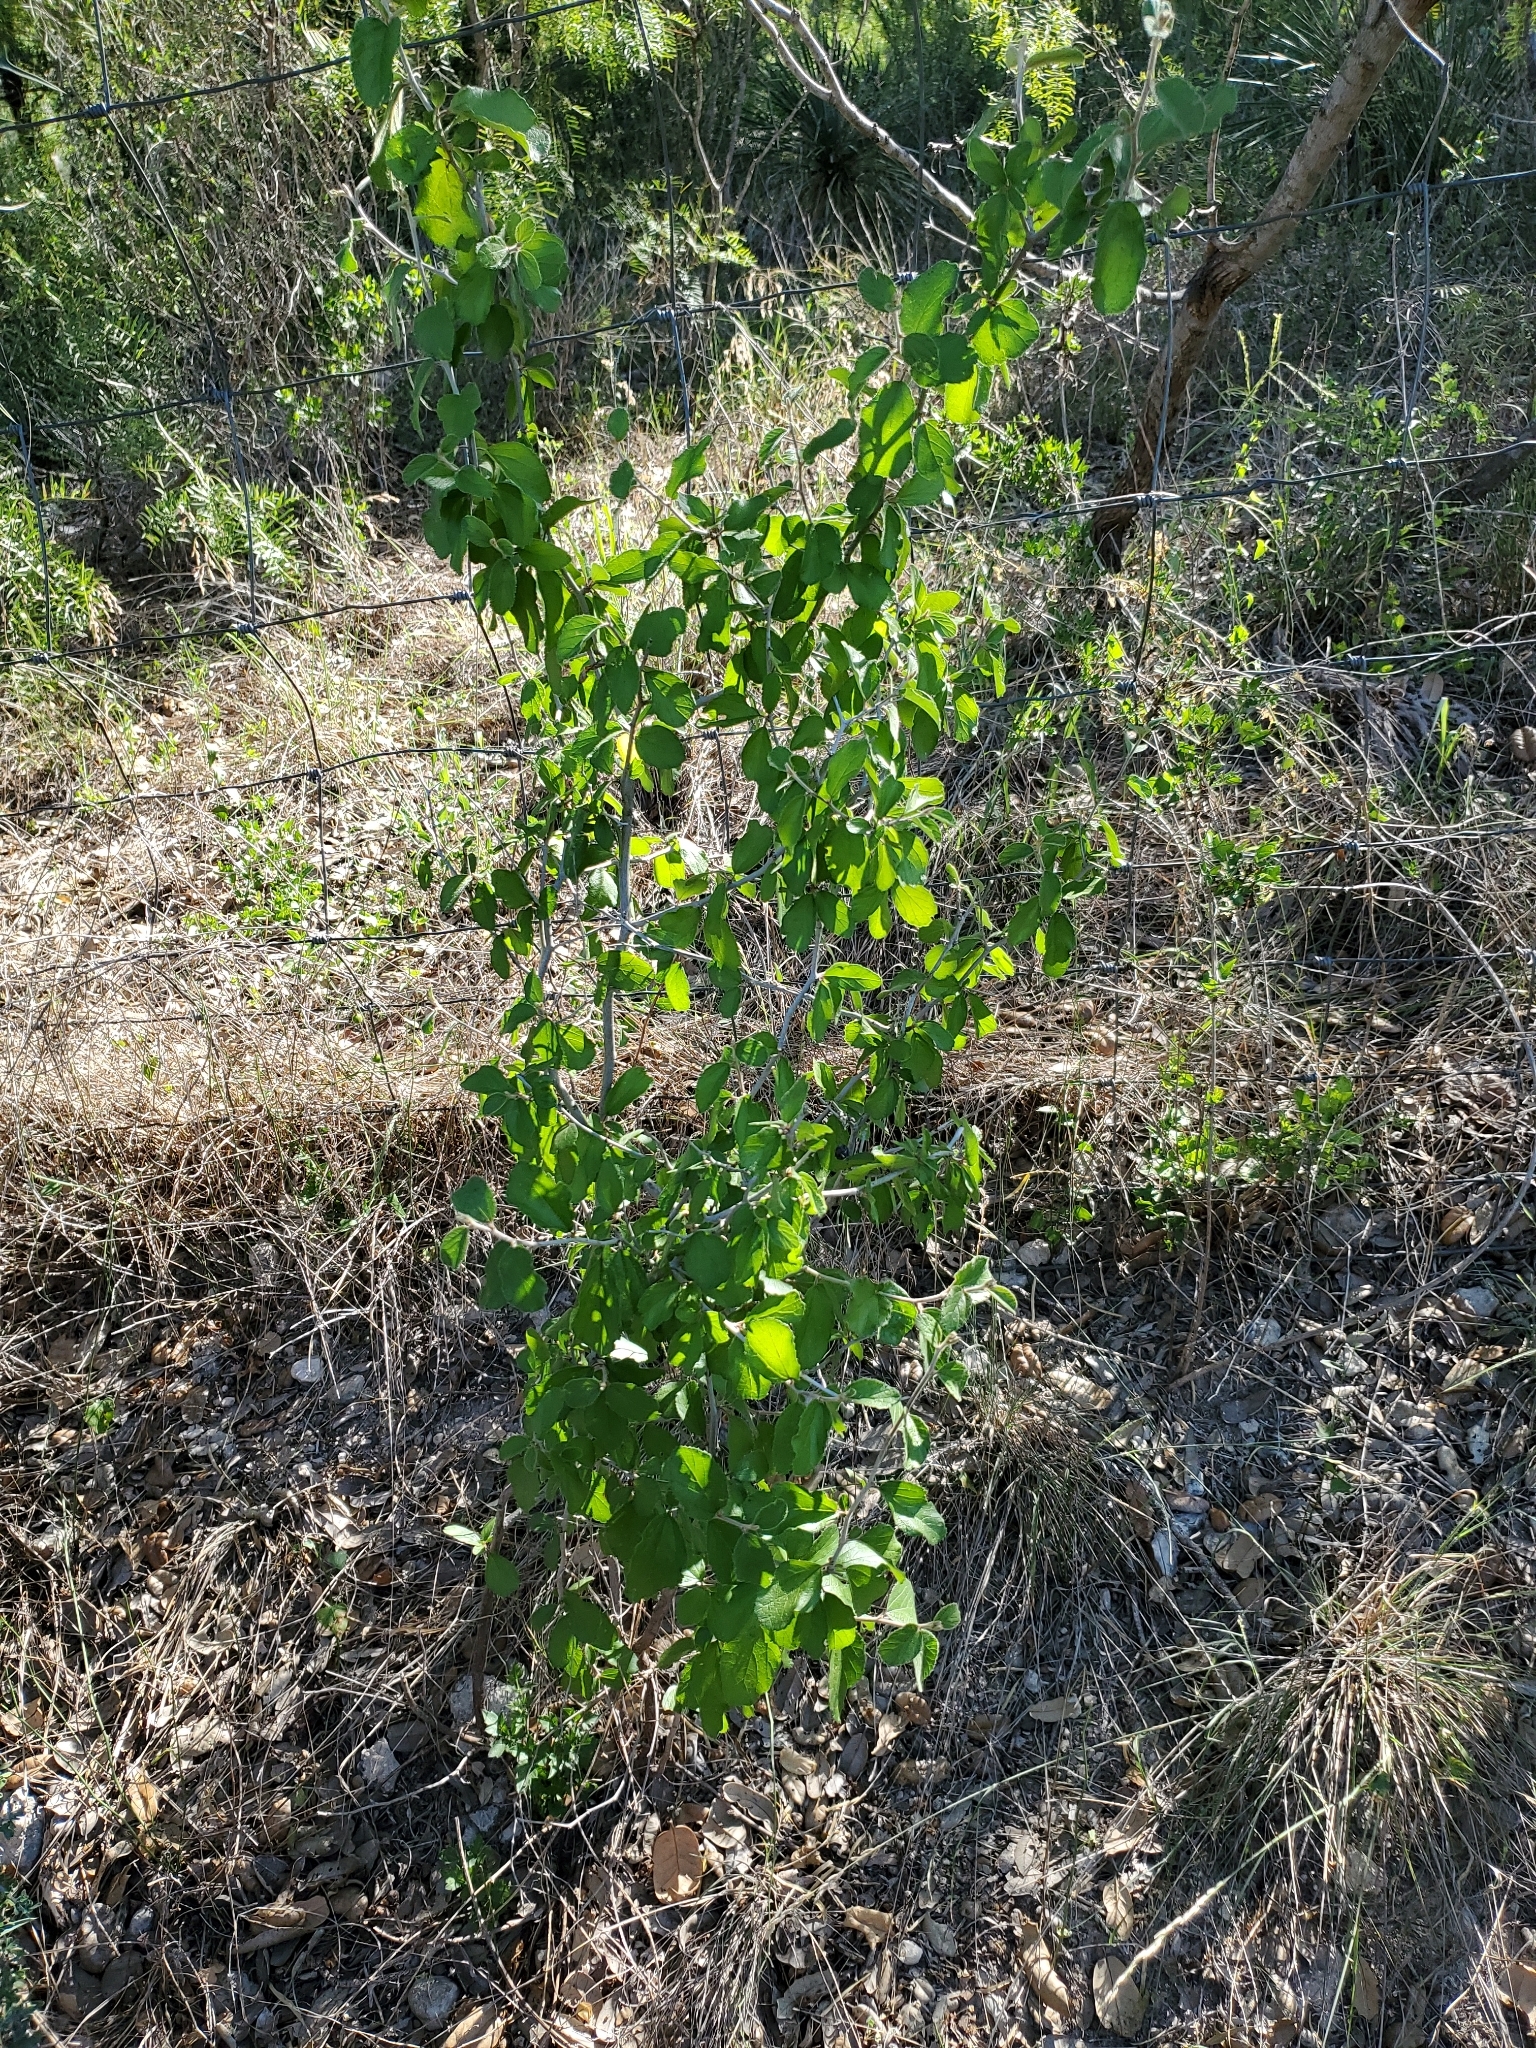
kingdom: Plantae
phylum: Tracheophyta
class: Magnoliopsida
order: Rosales
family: Rhamnaceae
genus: Colubrina
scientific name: Colubrina texensis
